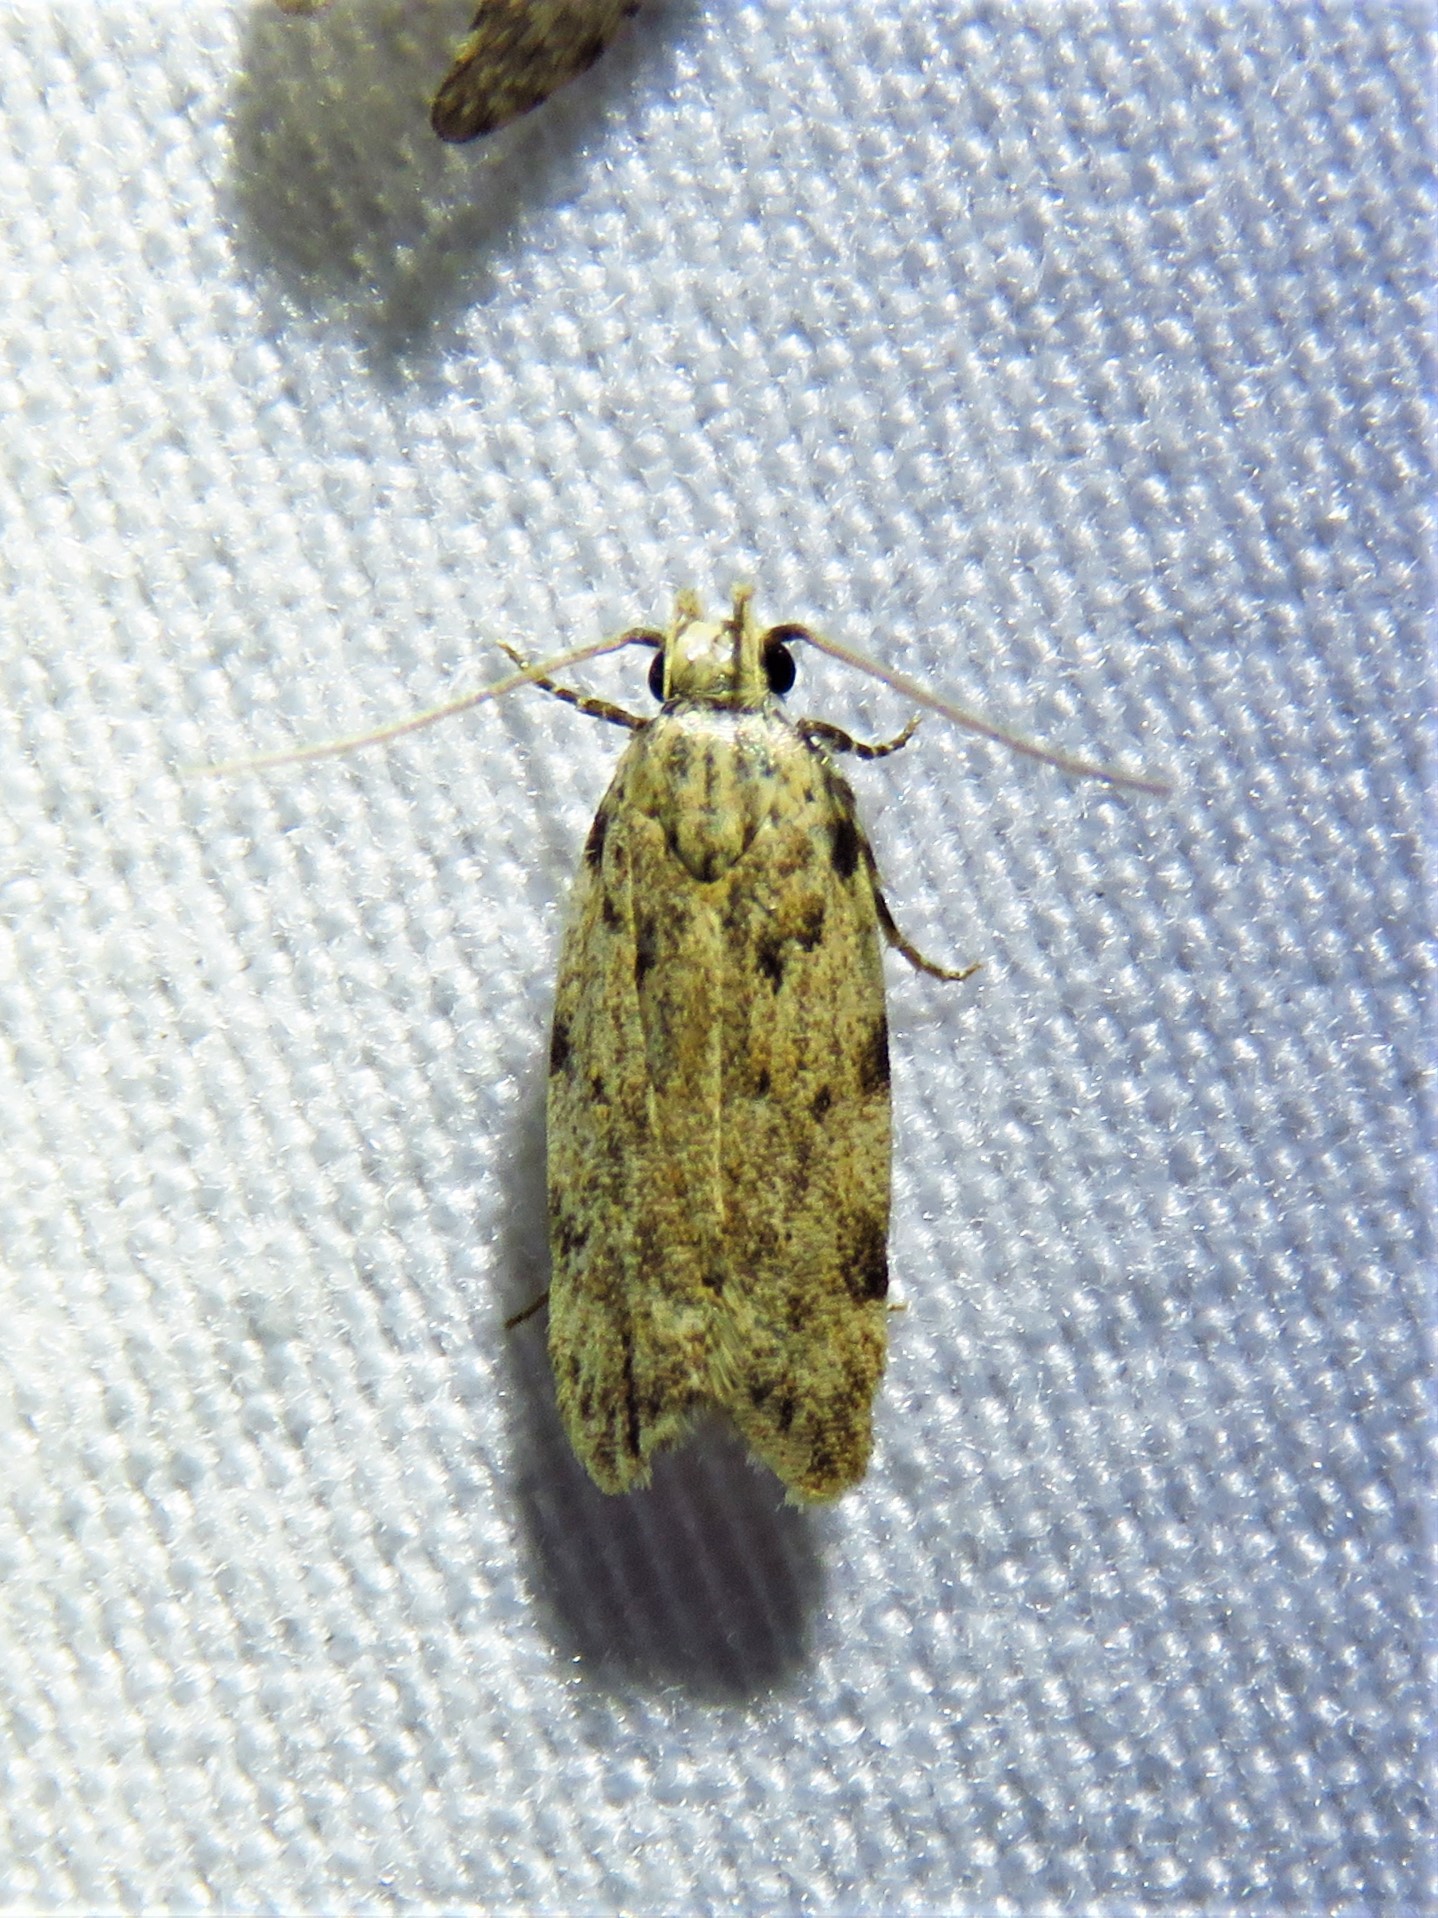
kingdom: Animalia
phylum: Arthropoda
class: Insecta
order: Lepidoptera
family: Gelechiidae
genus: Friseria
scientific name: Friseria cockerelli
